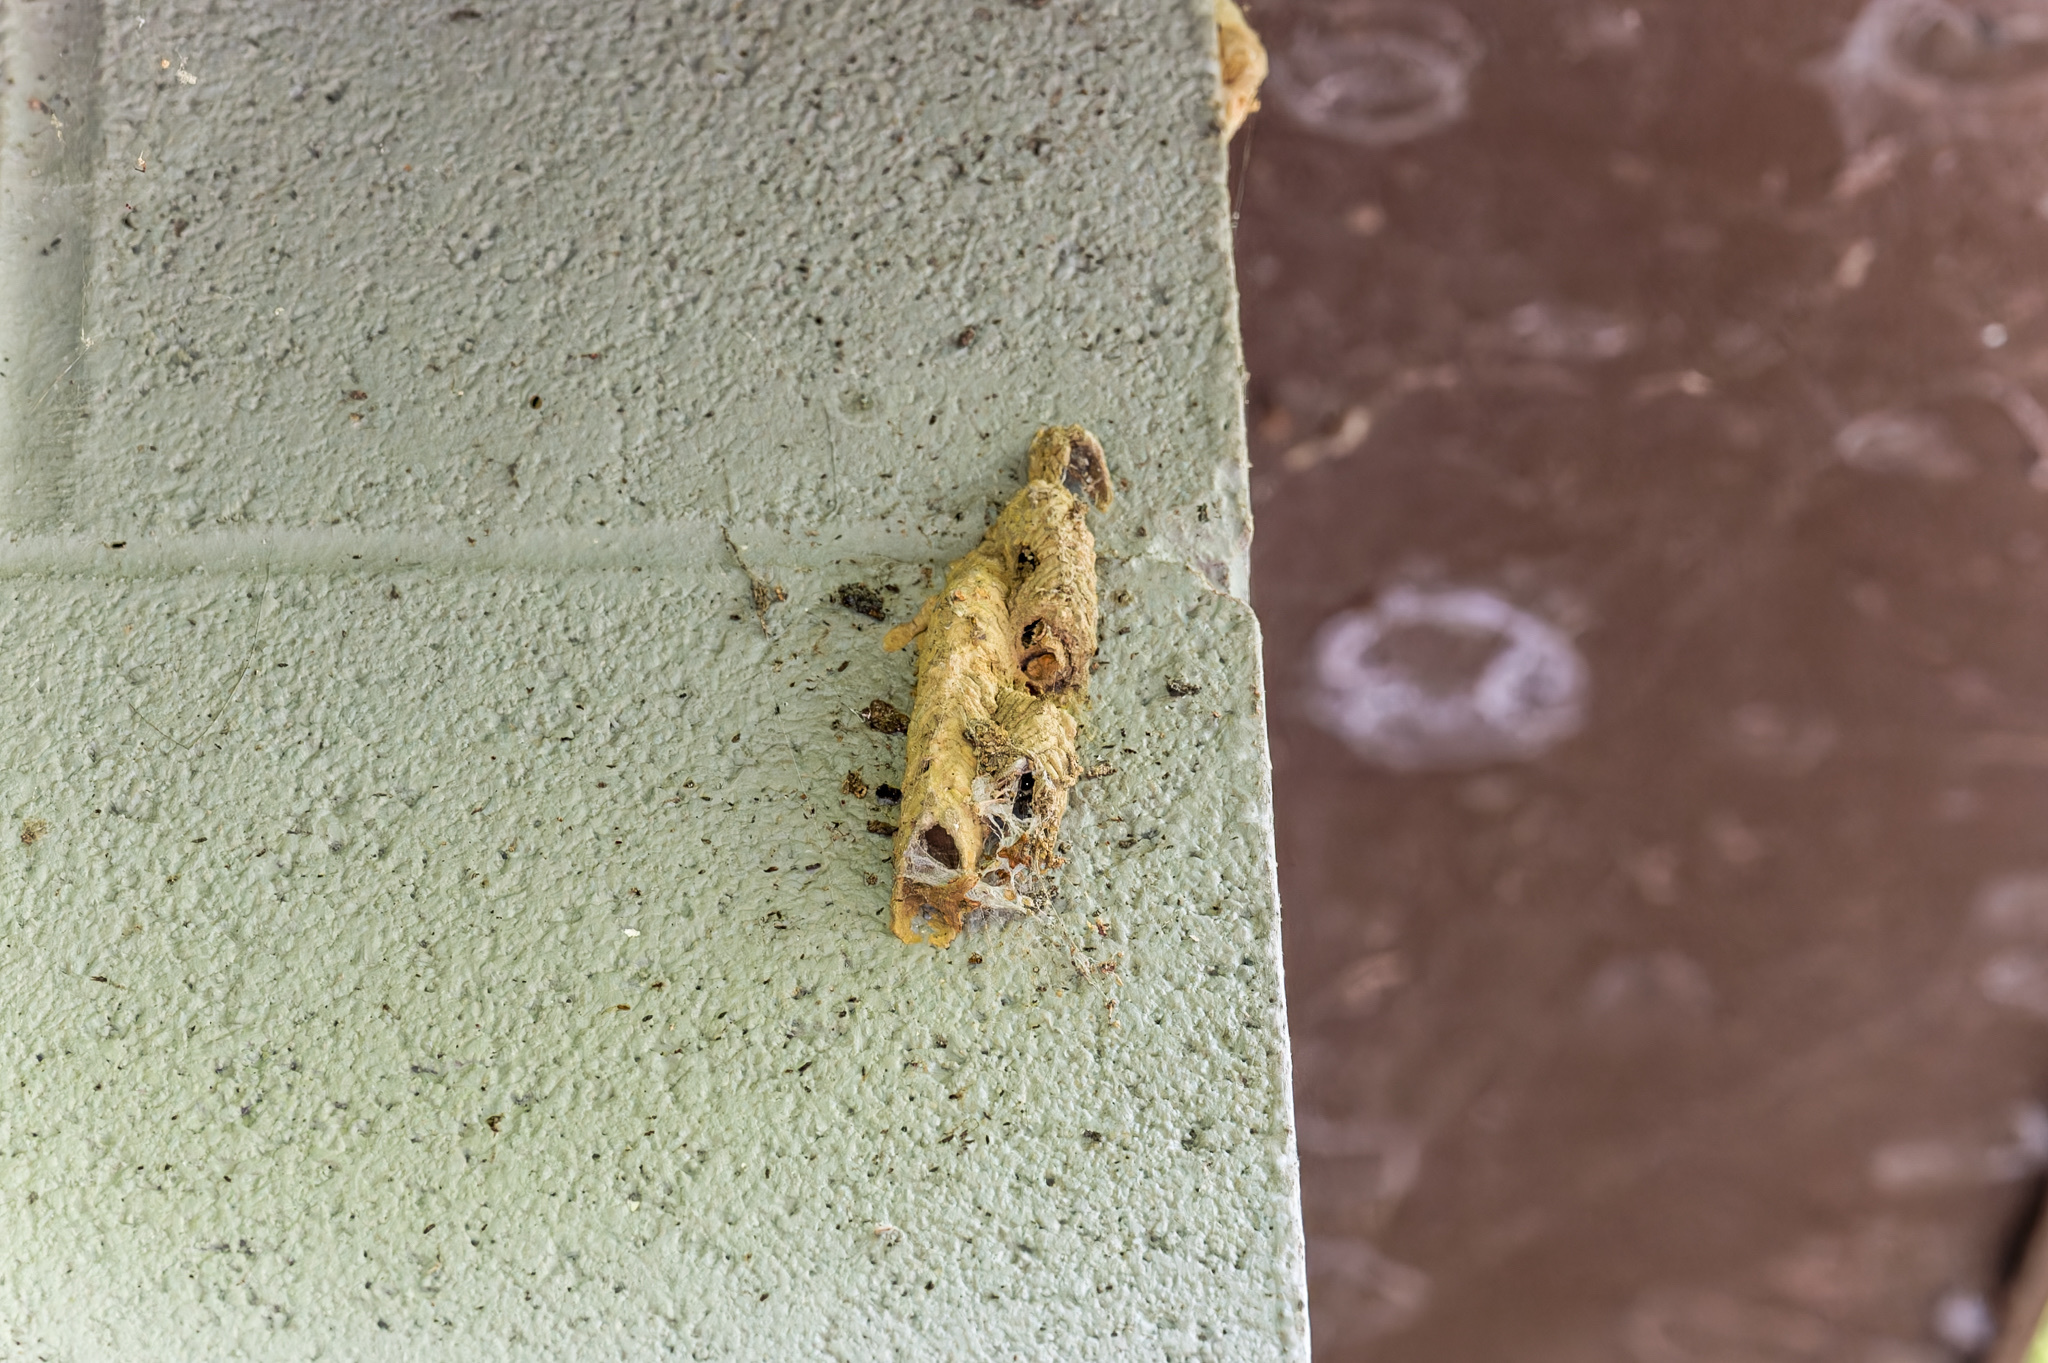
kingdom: Animalia
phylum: Arthropoda
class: Insecta
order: Hymenoptera
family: Crabronidae
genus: Trypoxylon
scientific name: Trypoxylon politum
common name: Organ-pipe mud-dauber wasp
